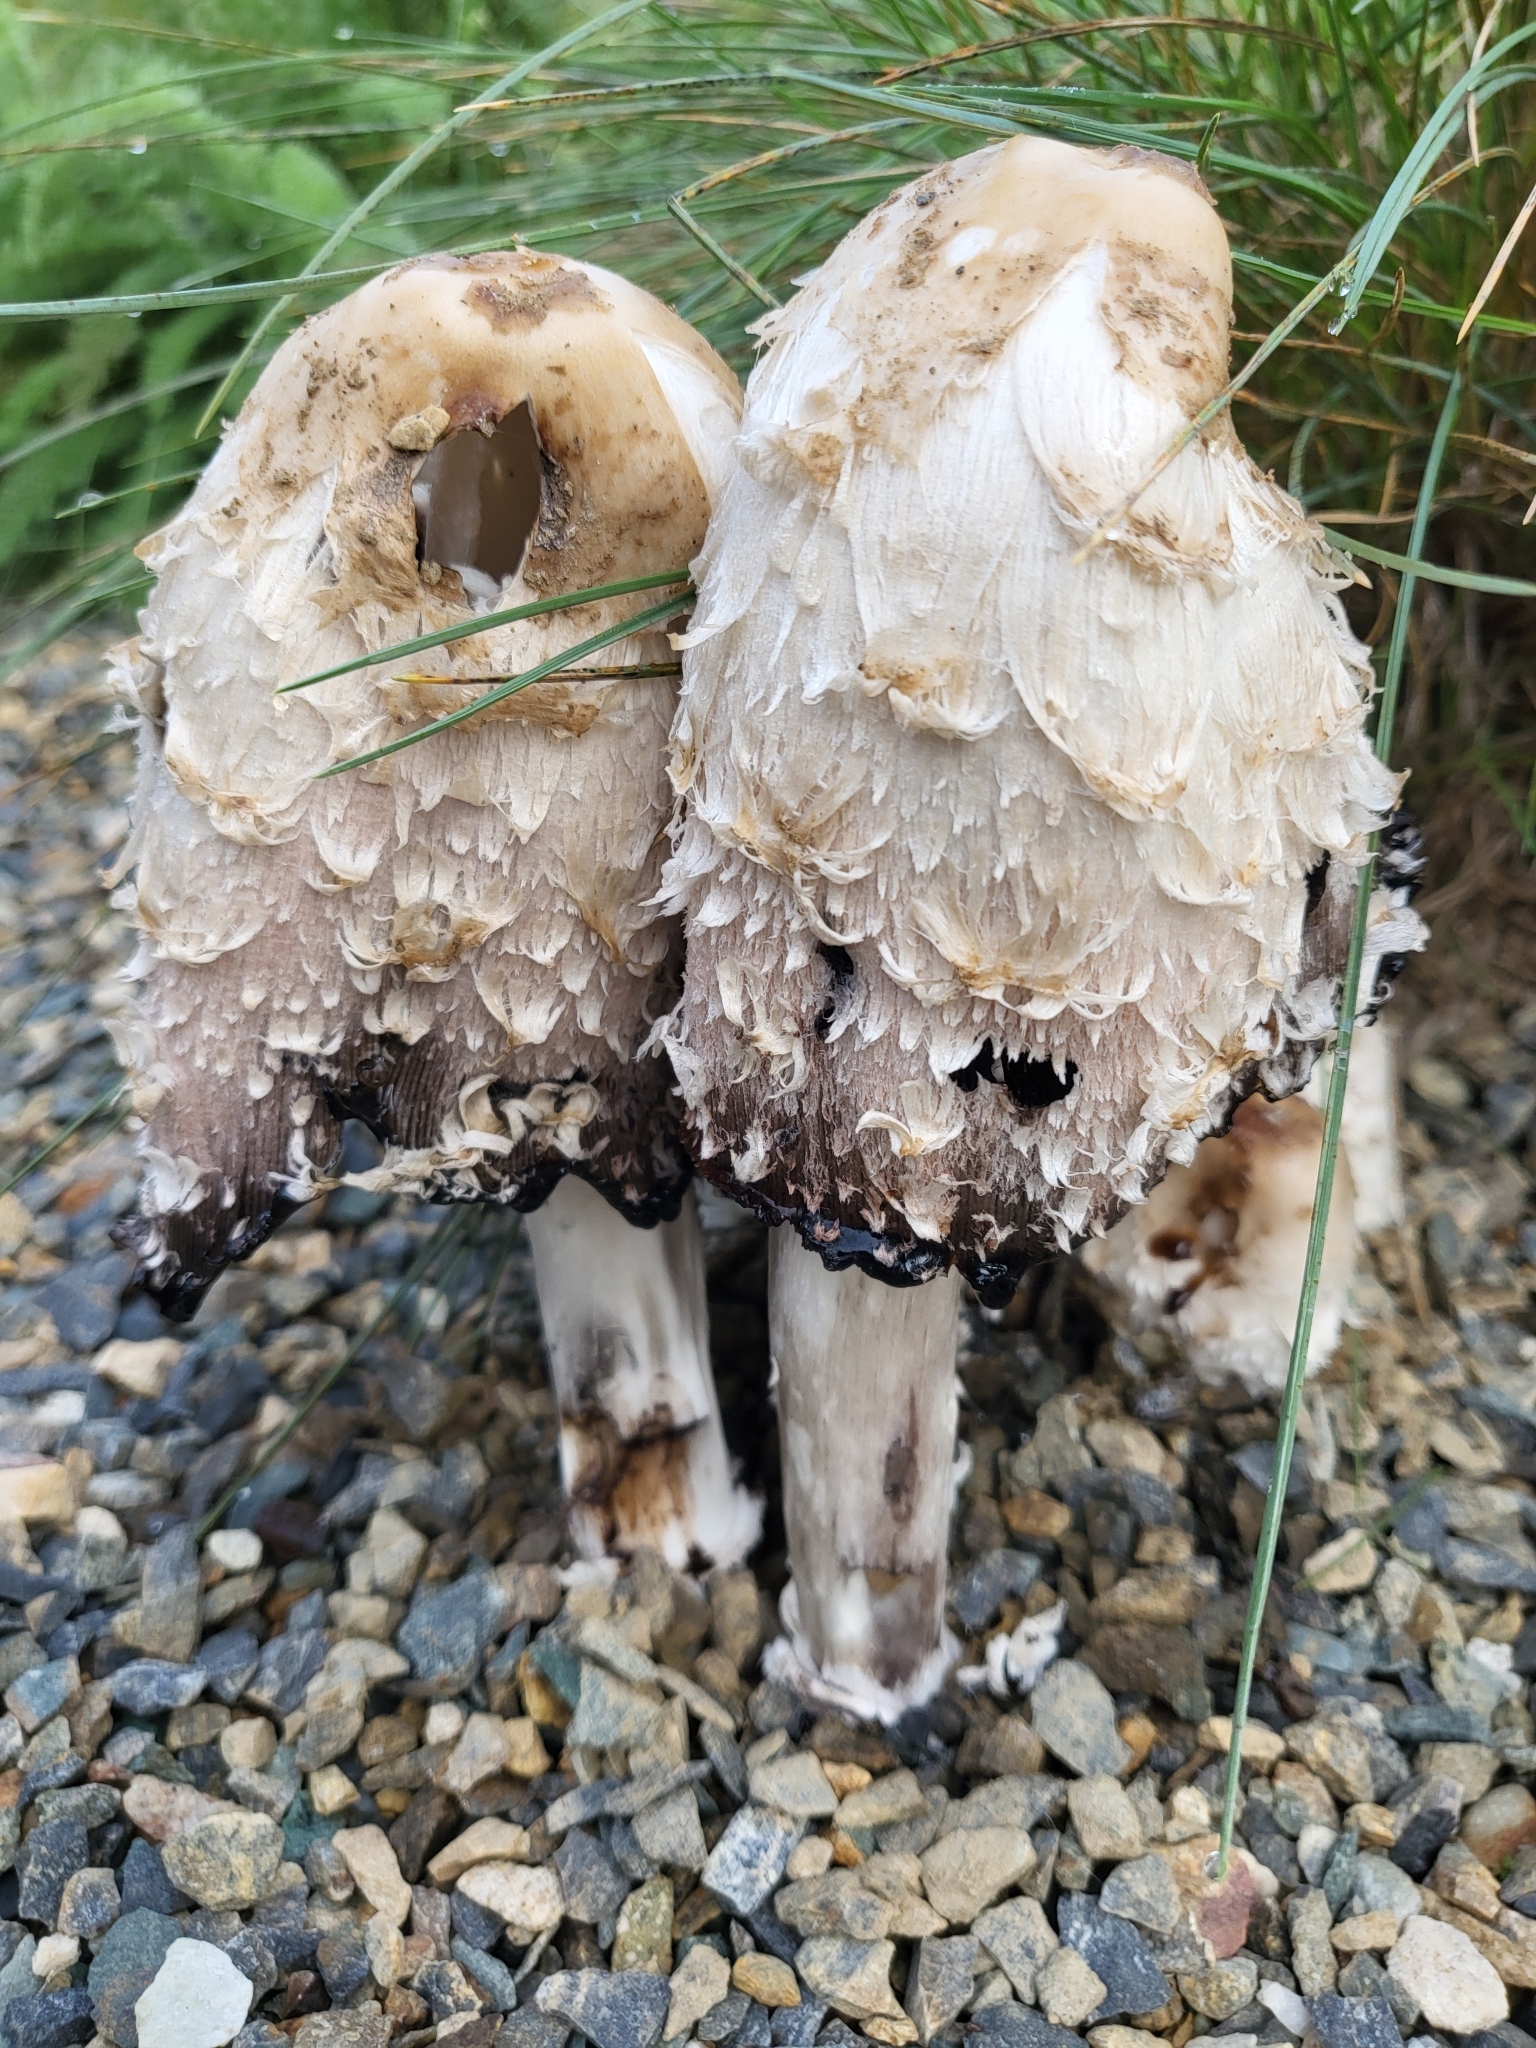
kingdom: Fungi
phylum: Basidiomycota
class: Agaricomycetes
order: Agaricales
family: Agaricaceae
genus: Coprinus
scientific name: Coprinus comatus
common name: Lawyer's wig
